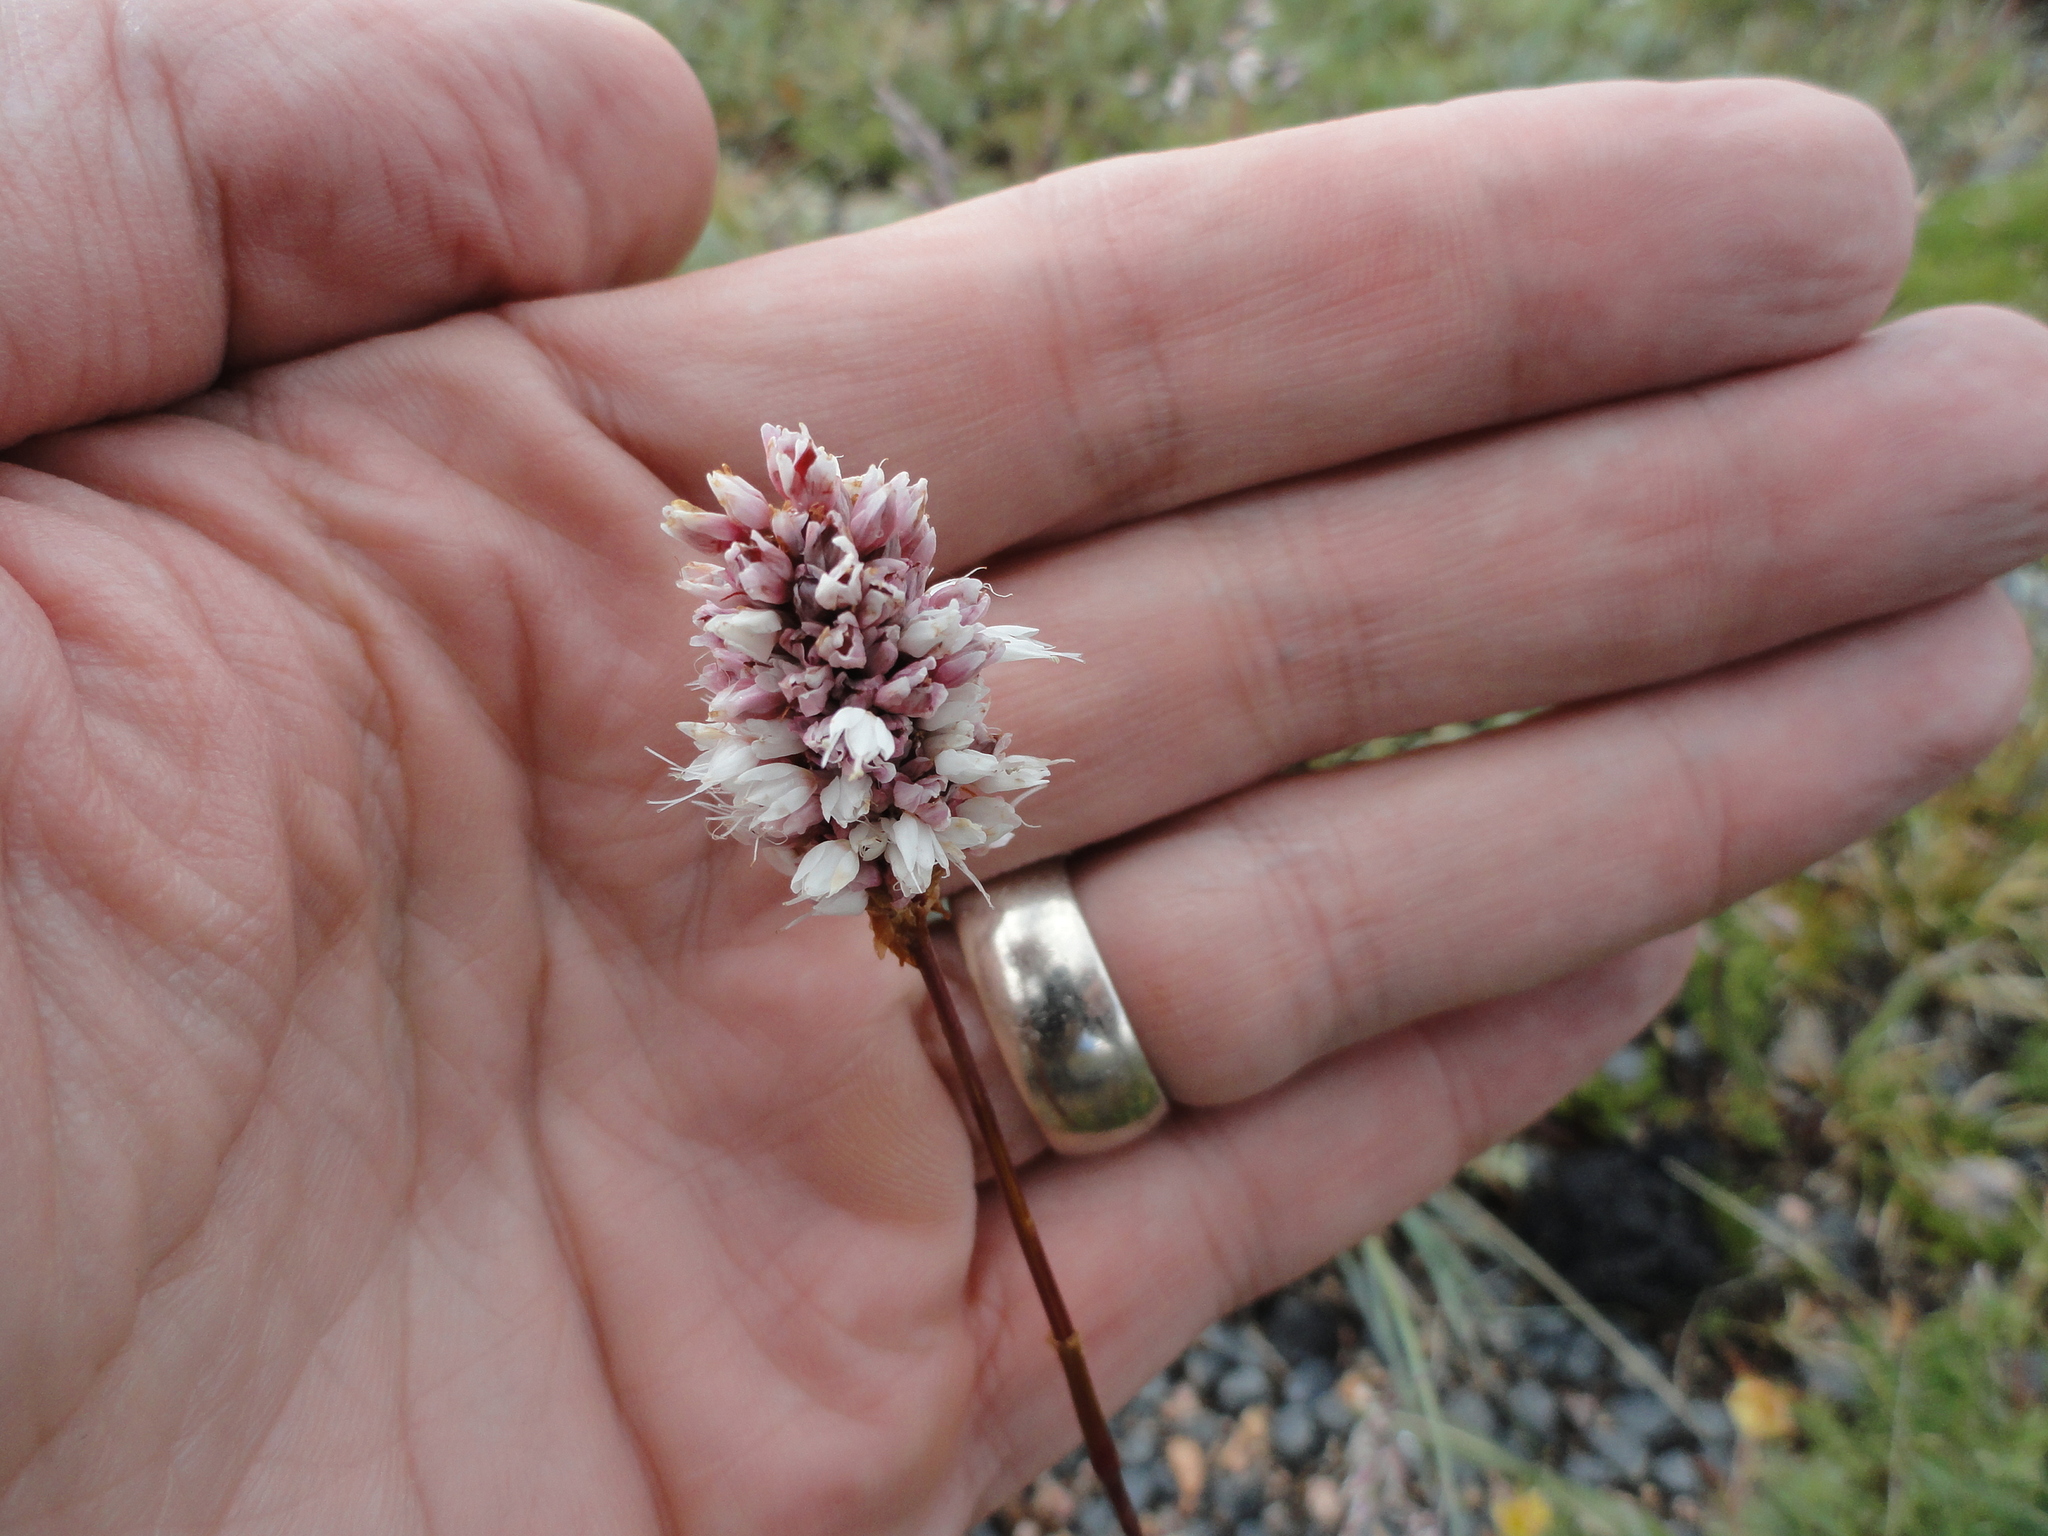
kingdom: Plantae
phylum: Tracheophyta
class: Magnoliopsida
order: Caryophyllales
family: Polygonaceae
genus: Bistorta
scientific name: Bistorta bistortoides
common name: American bistort
